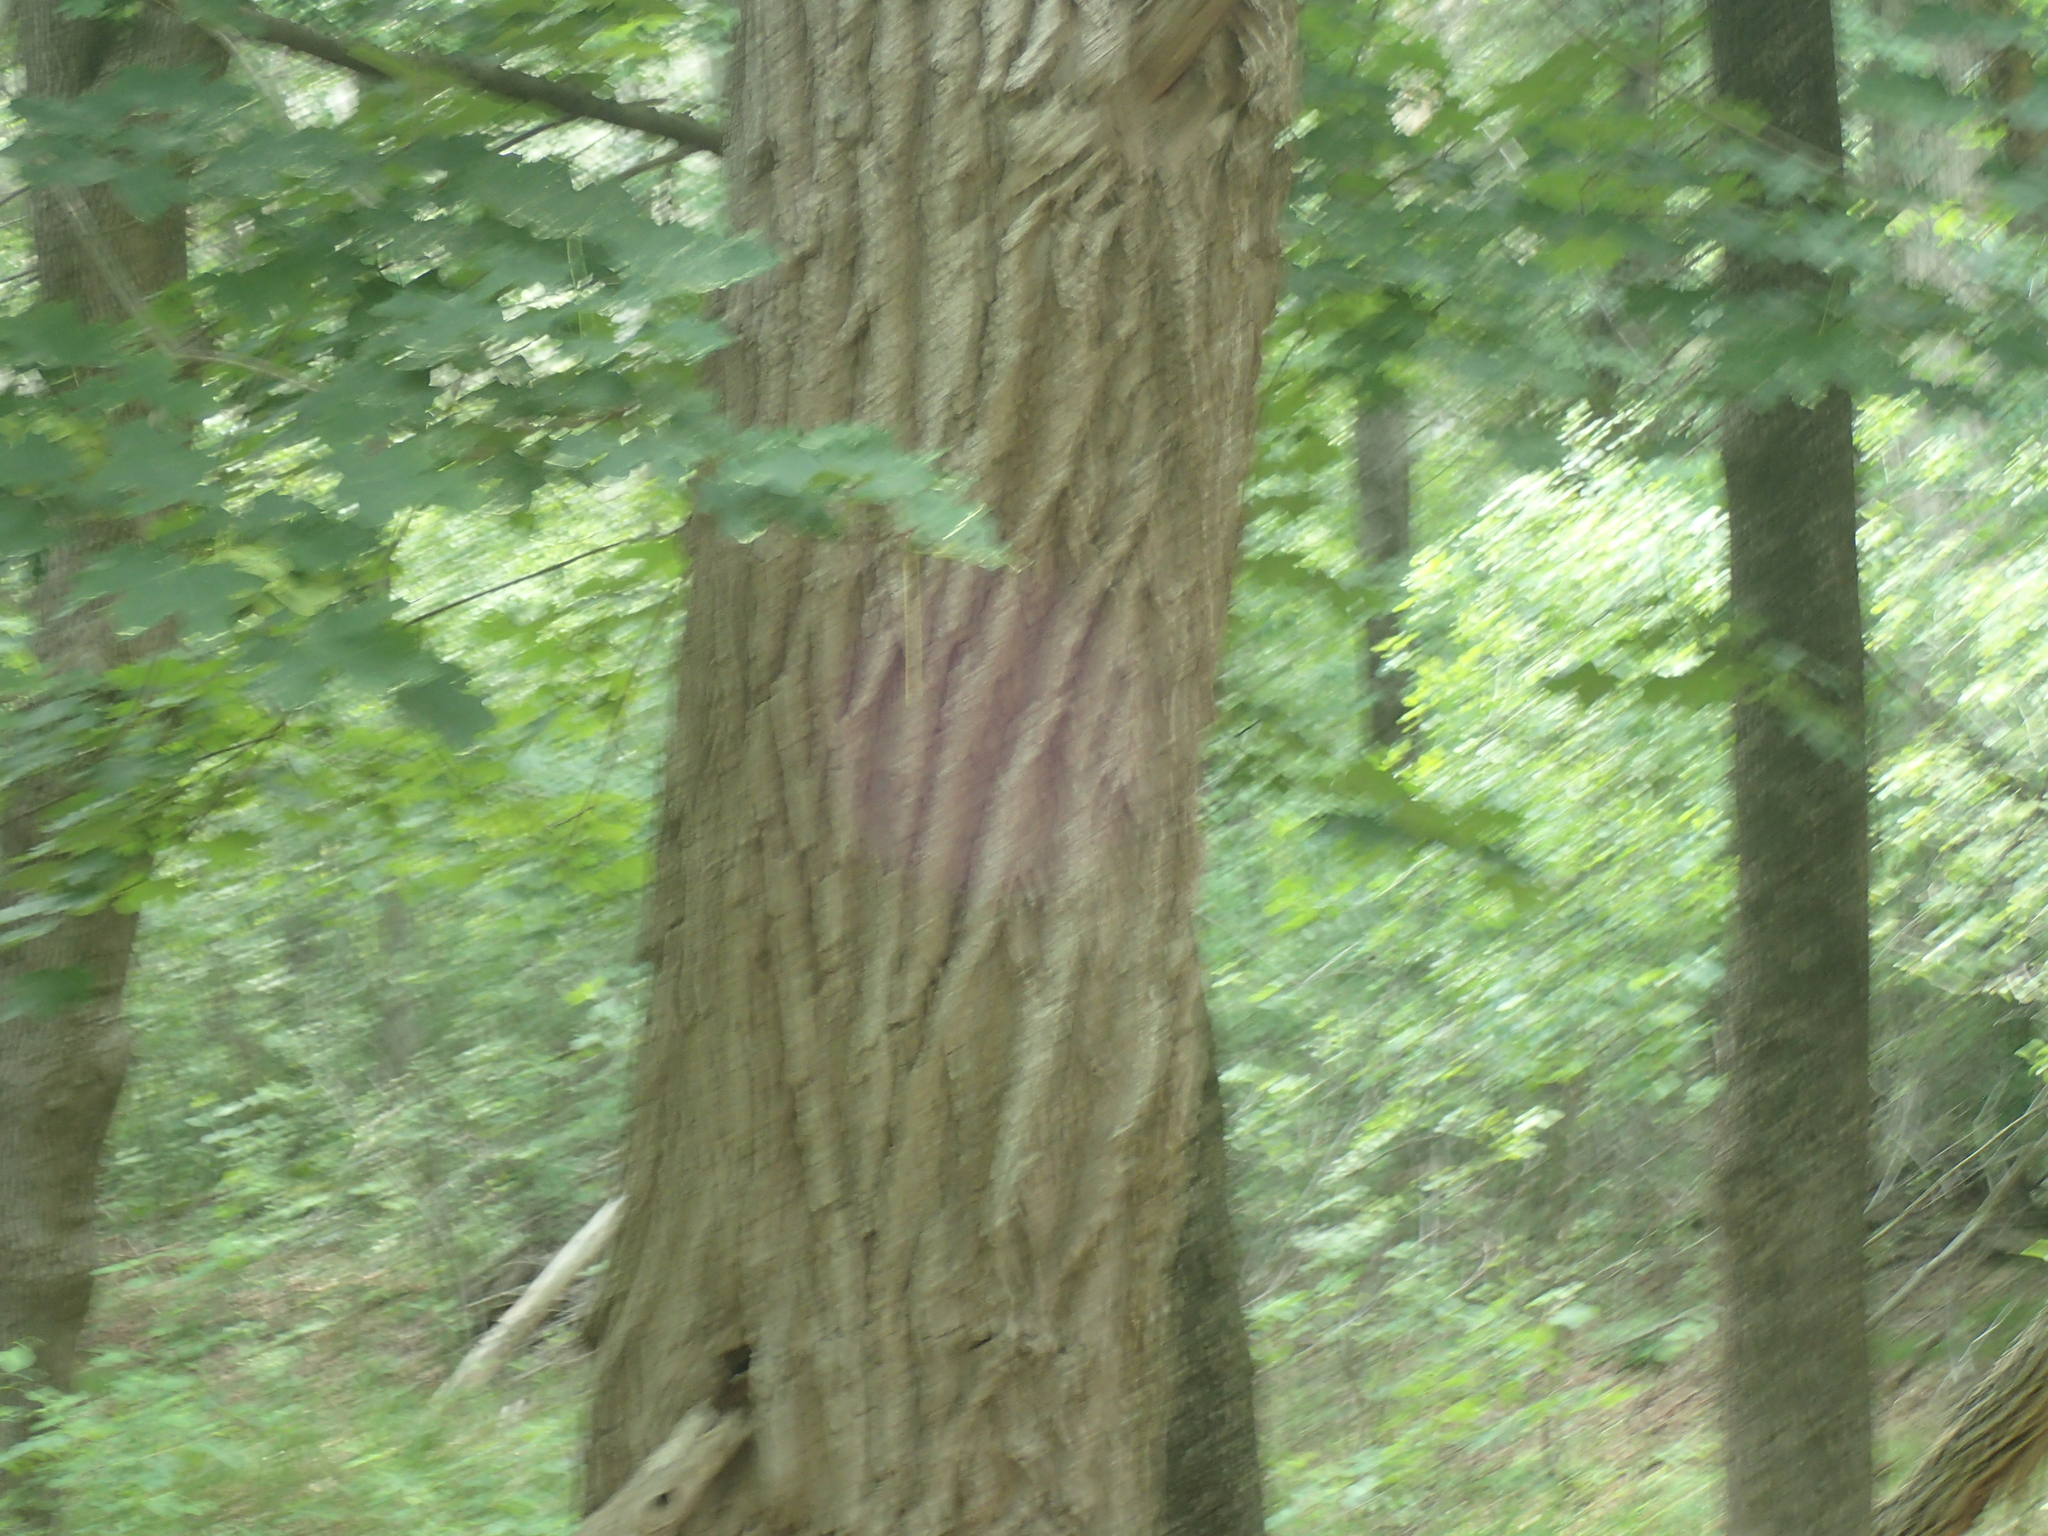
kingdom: Plantae
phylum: Tracheophyta
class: Magnoliopsida
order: Fabales
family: Fabaceae
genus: Robinia
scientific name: Robinia pseudoacacia
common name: Black locust
